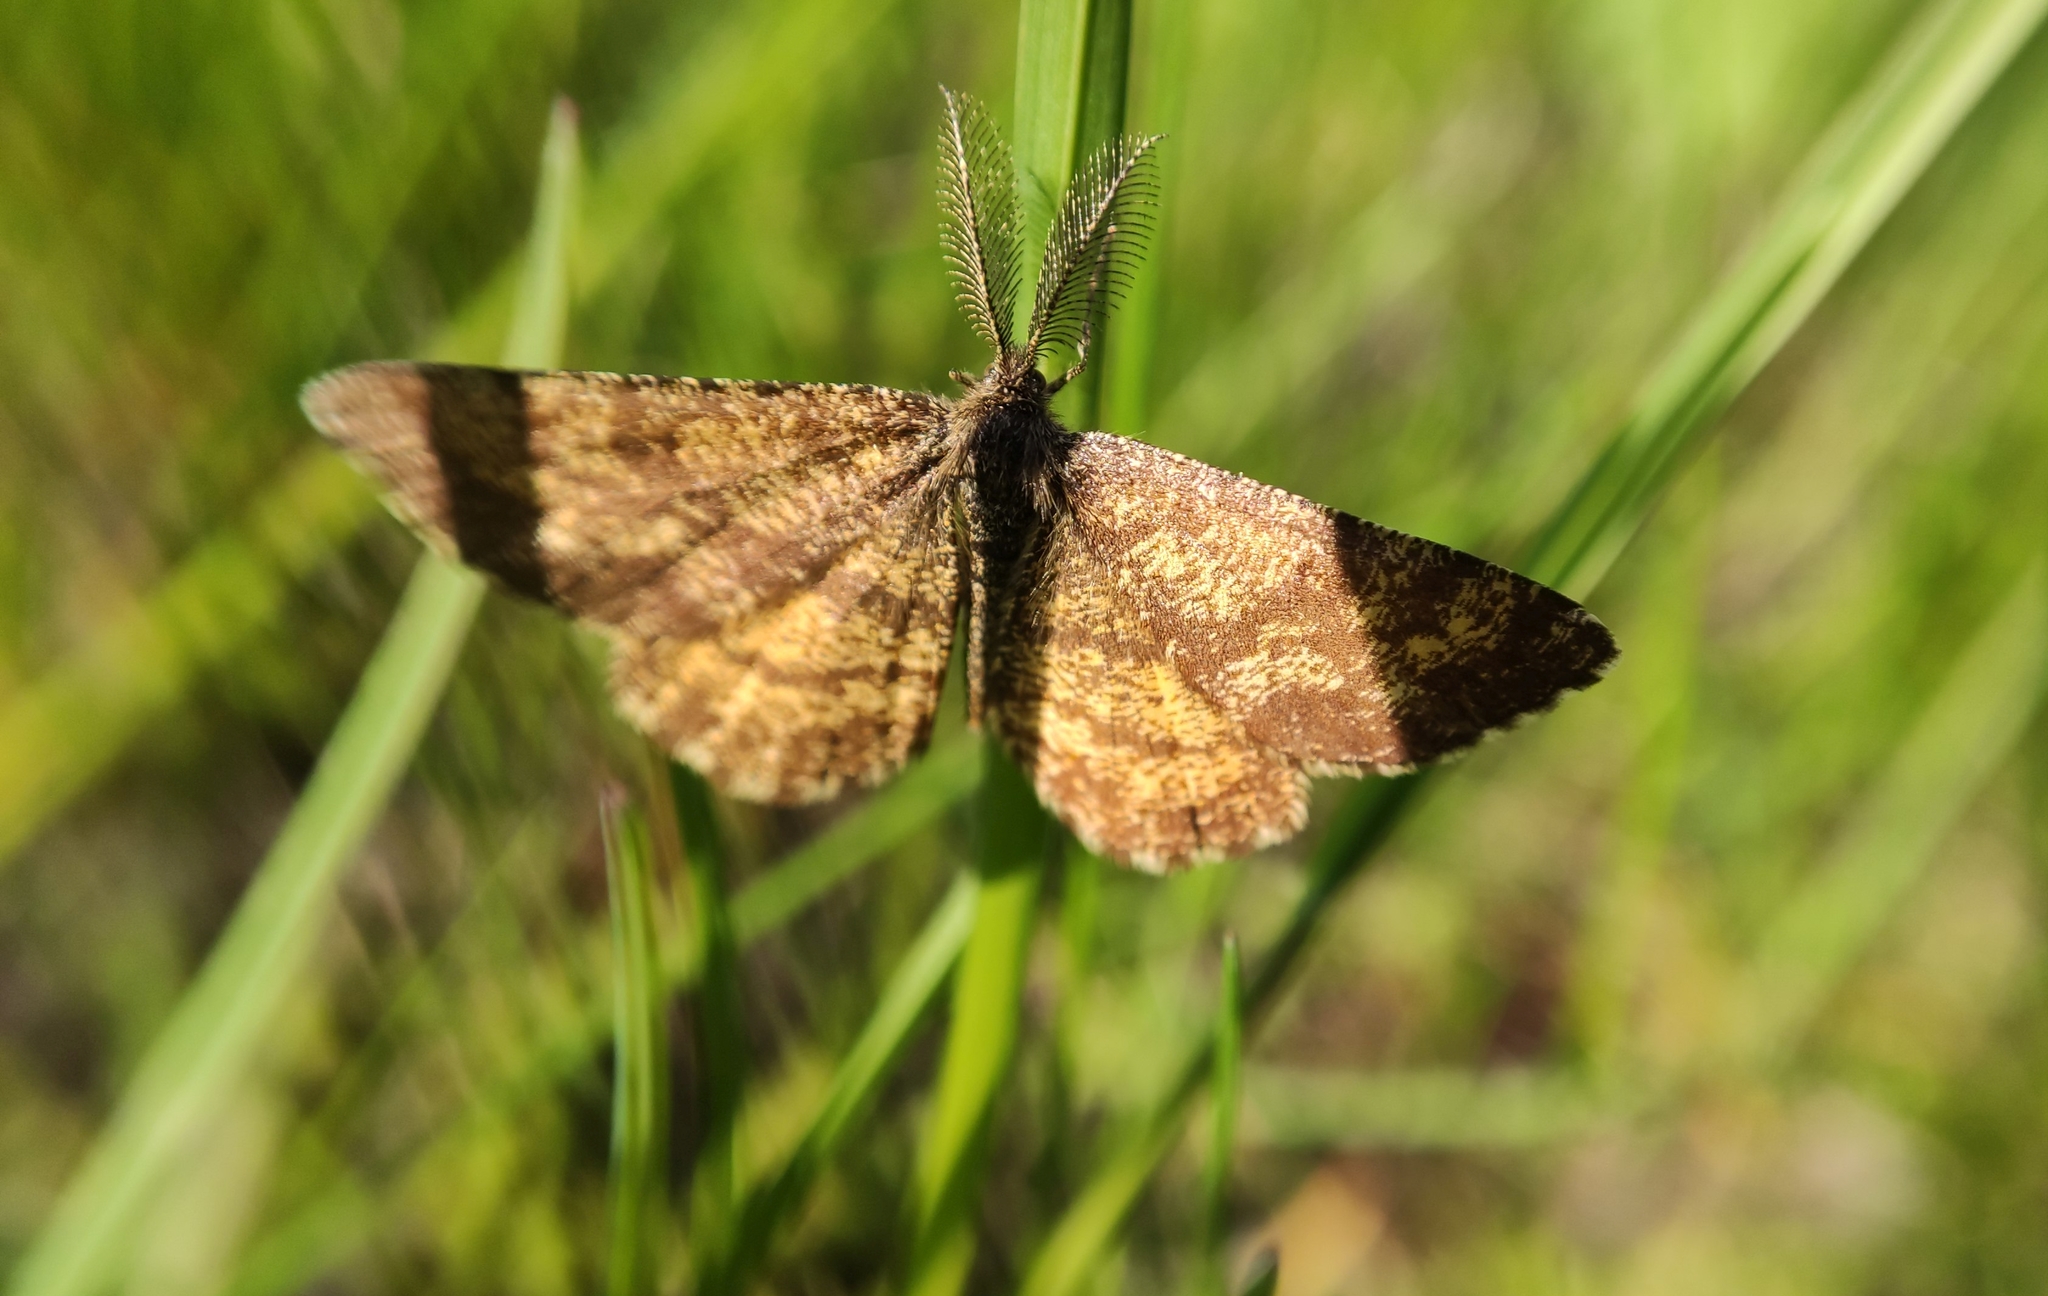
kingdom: Animalia
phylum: Arthropoda
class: Insecta
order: Lepidoptera
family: Geometridae
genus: Ematurga
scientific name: Ematurga atomaria
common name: Common heath
